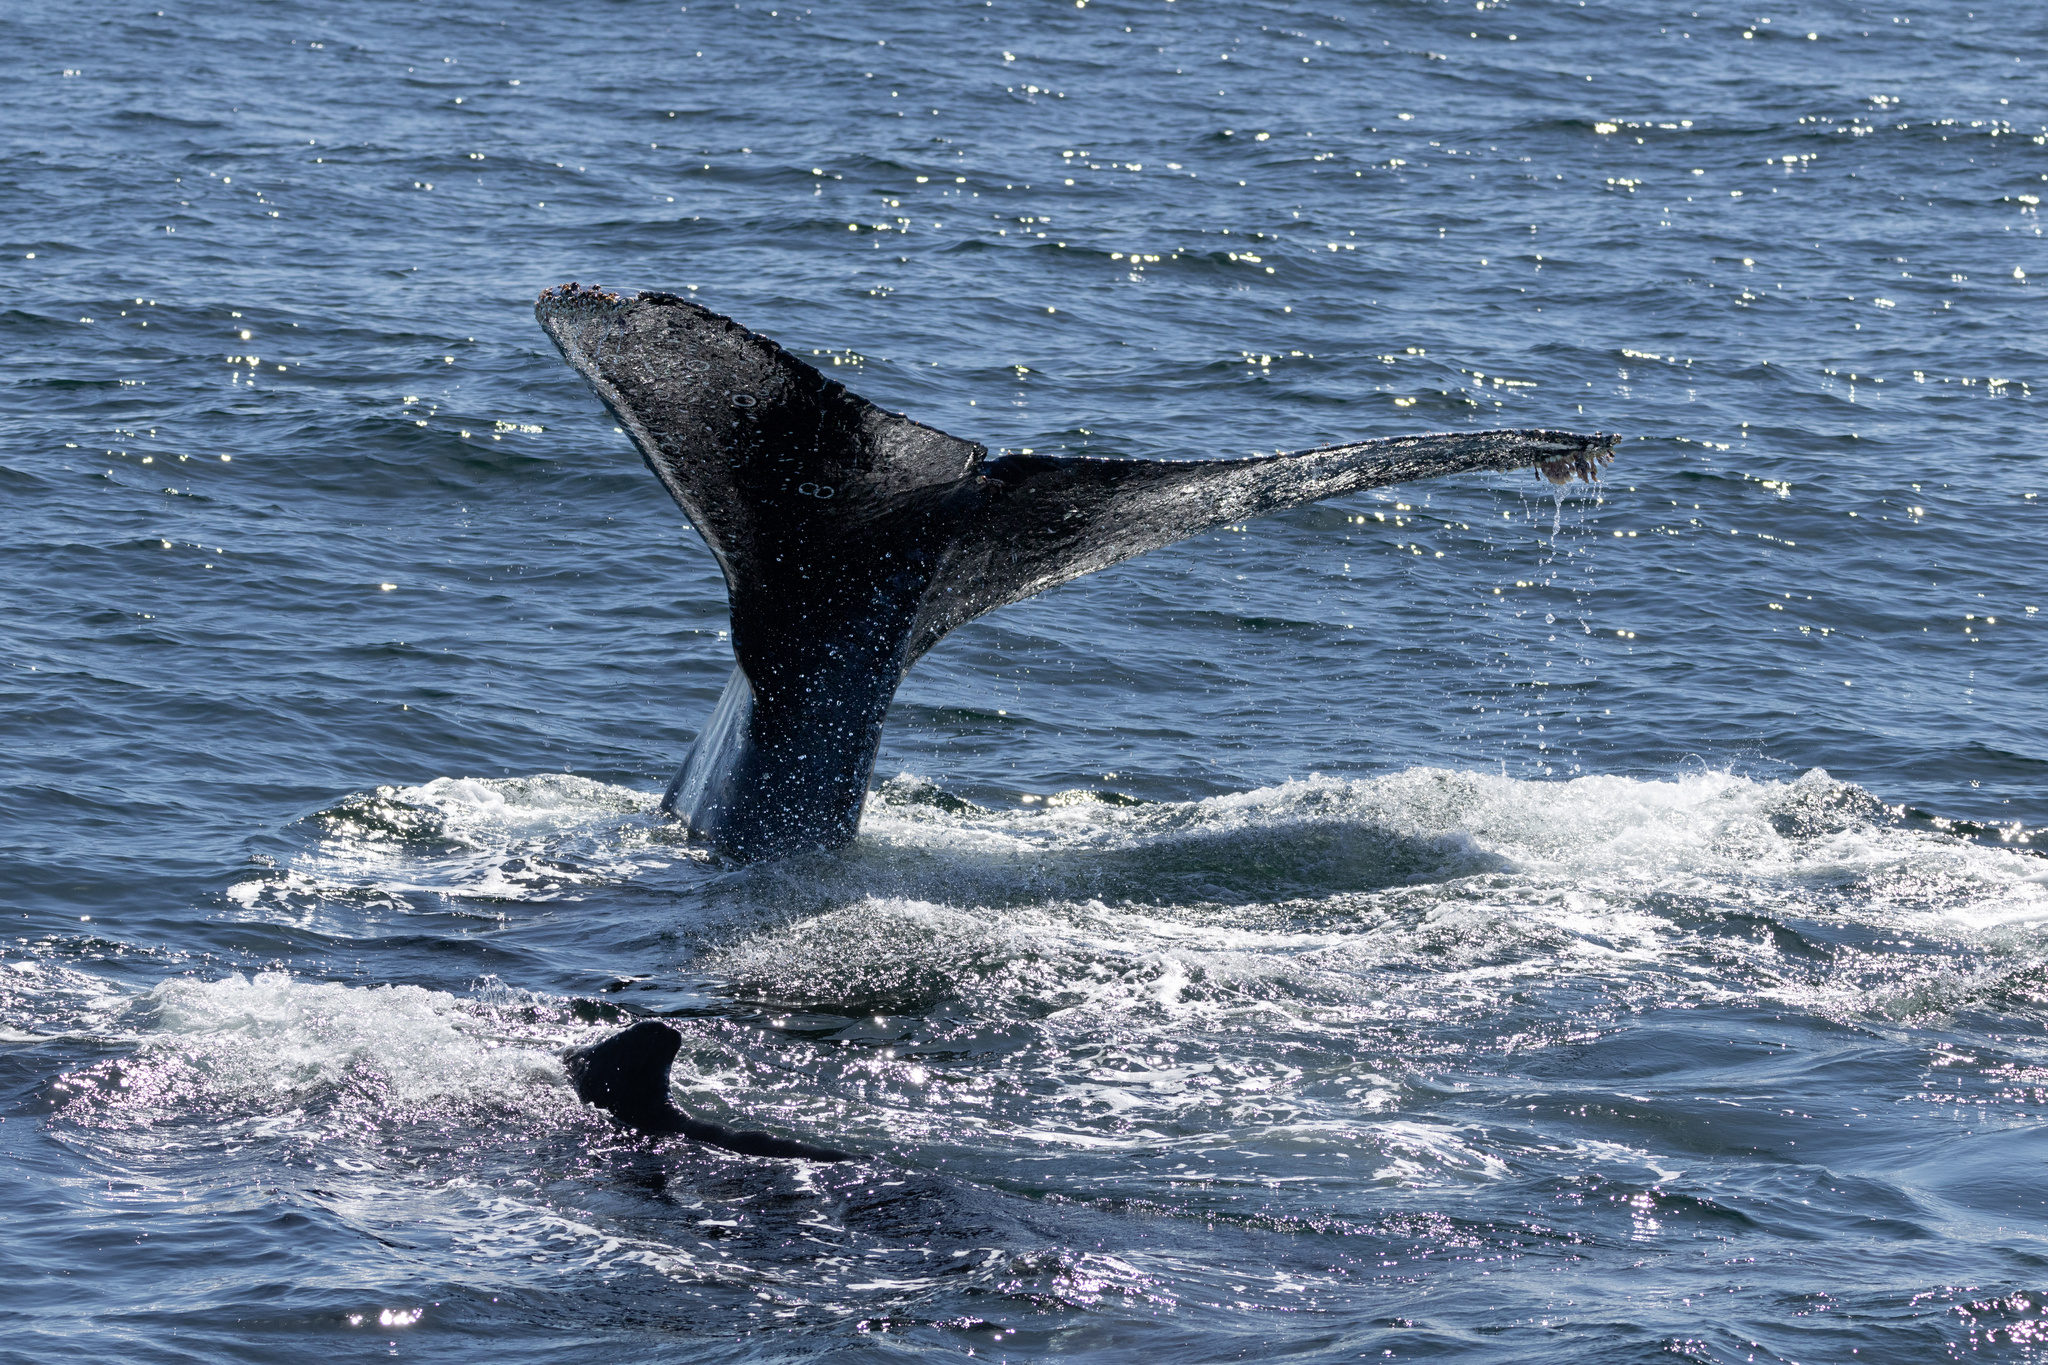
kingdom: Animalia
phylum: Chordata
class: Mammalia
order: Cetacea
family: Balaenopteridae
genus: Megaptera
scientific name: Megaptera novaeangliae
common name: Humpback whale
